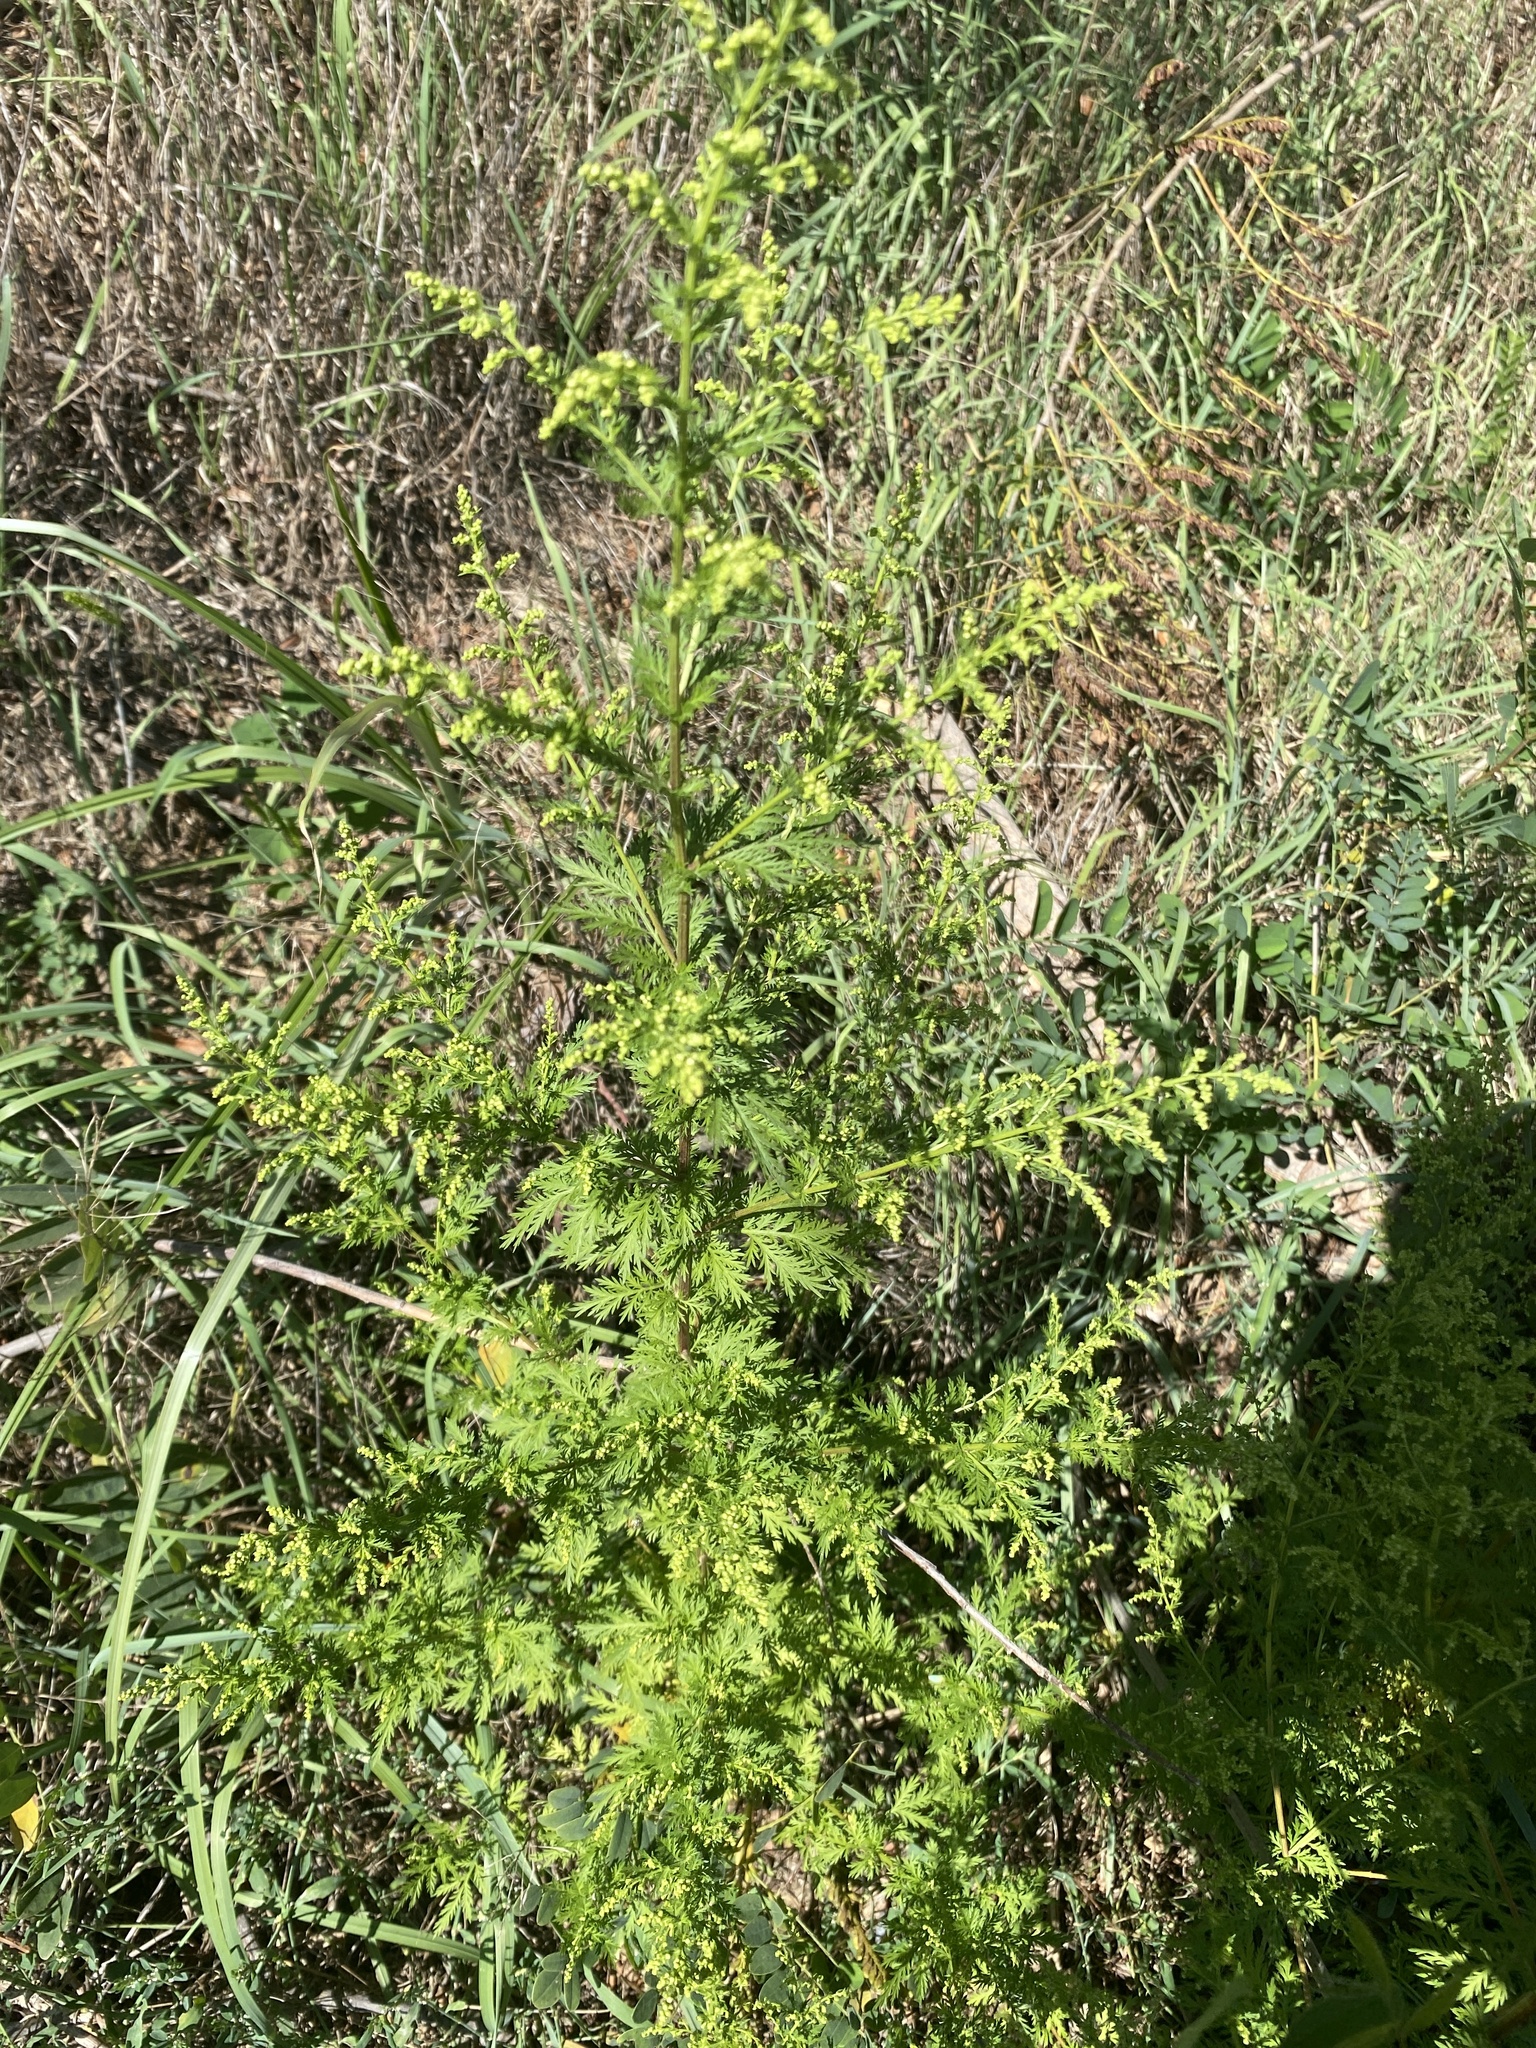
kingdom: Plantae
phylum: Tracheophyta
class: Magnoliopsida
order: Asterales
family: Asteraceae
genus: Artemisia
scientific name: Artemisia annua
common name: Sweet sagewort
